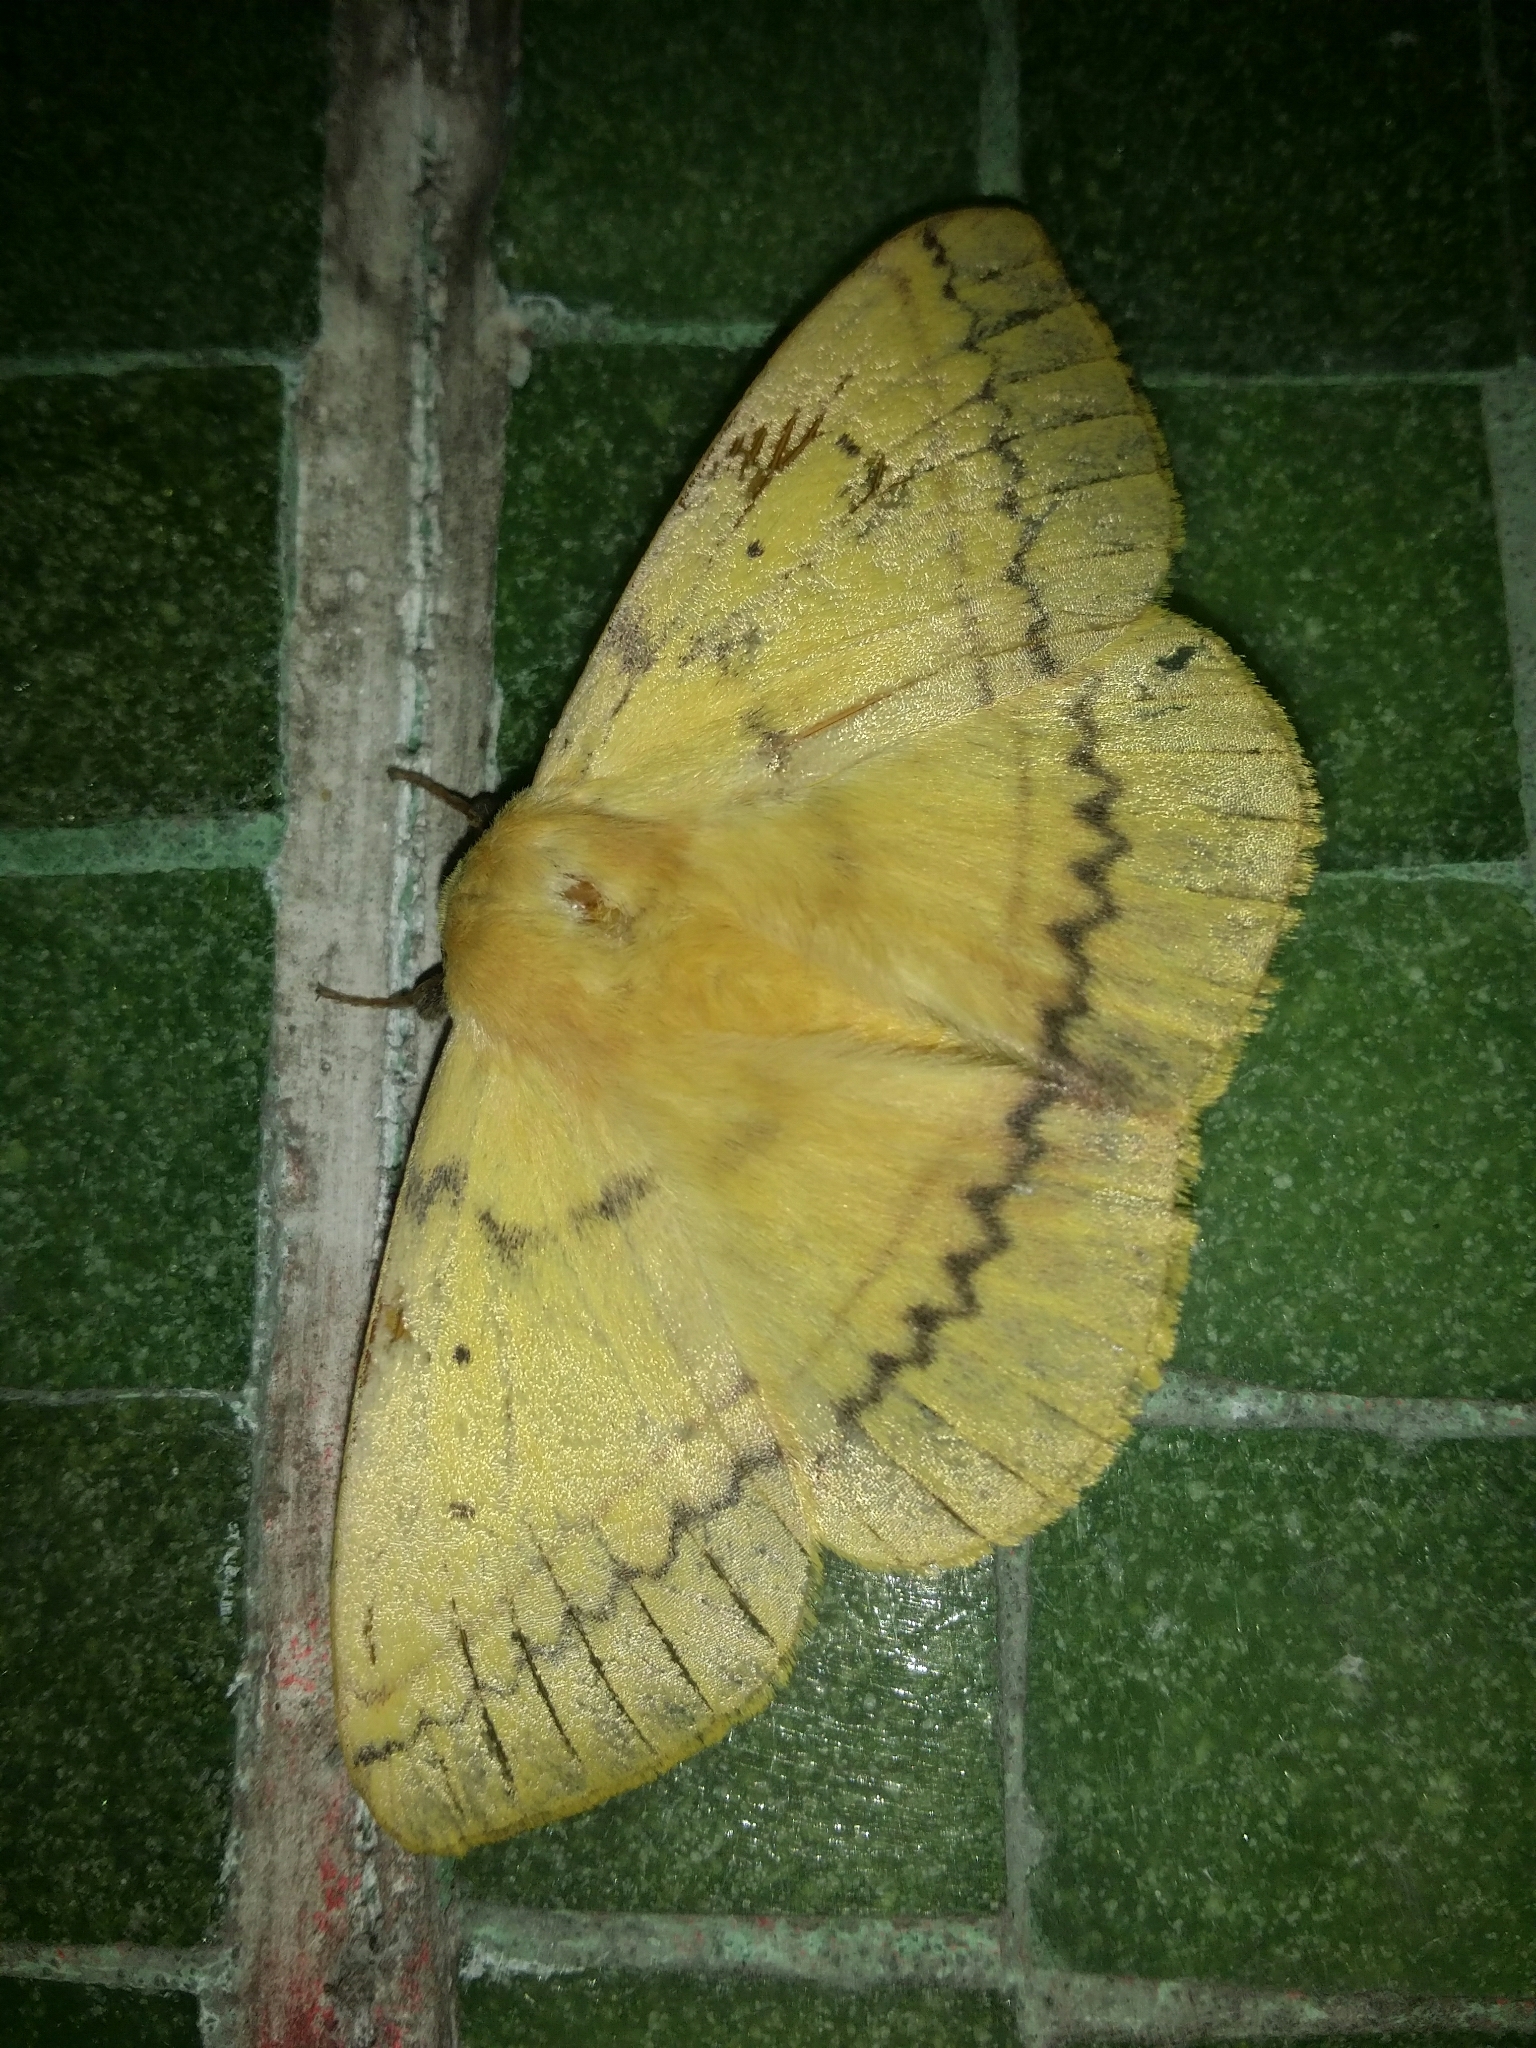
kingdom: Animalia
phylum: Arthropoda
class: Insecta
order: Lepidoptera
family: Anthelidae
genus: Anthela
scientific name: Anthela inornata
